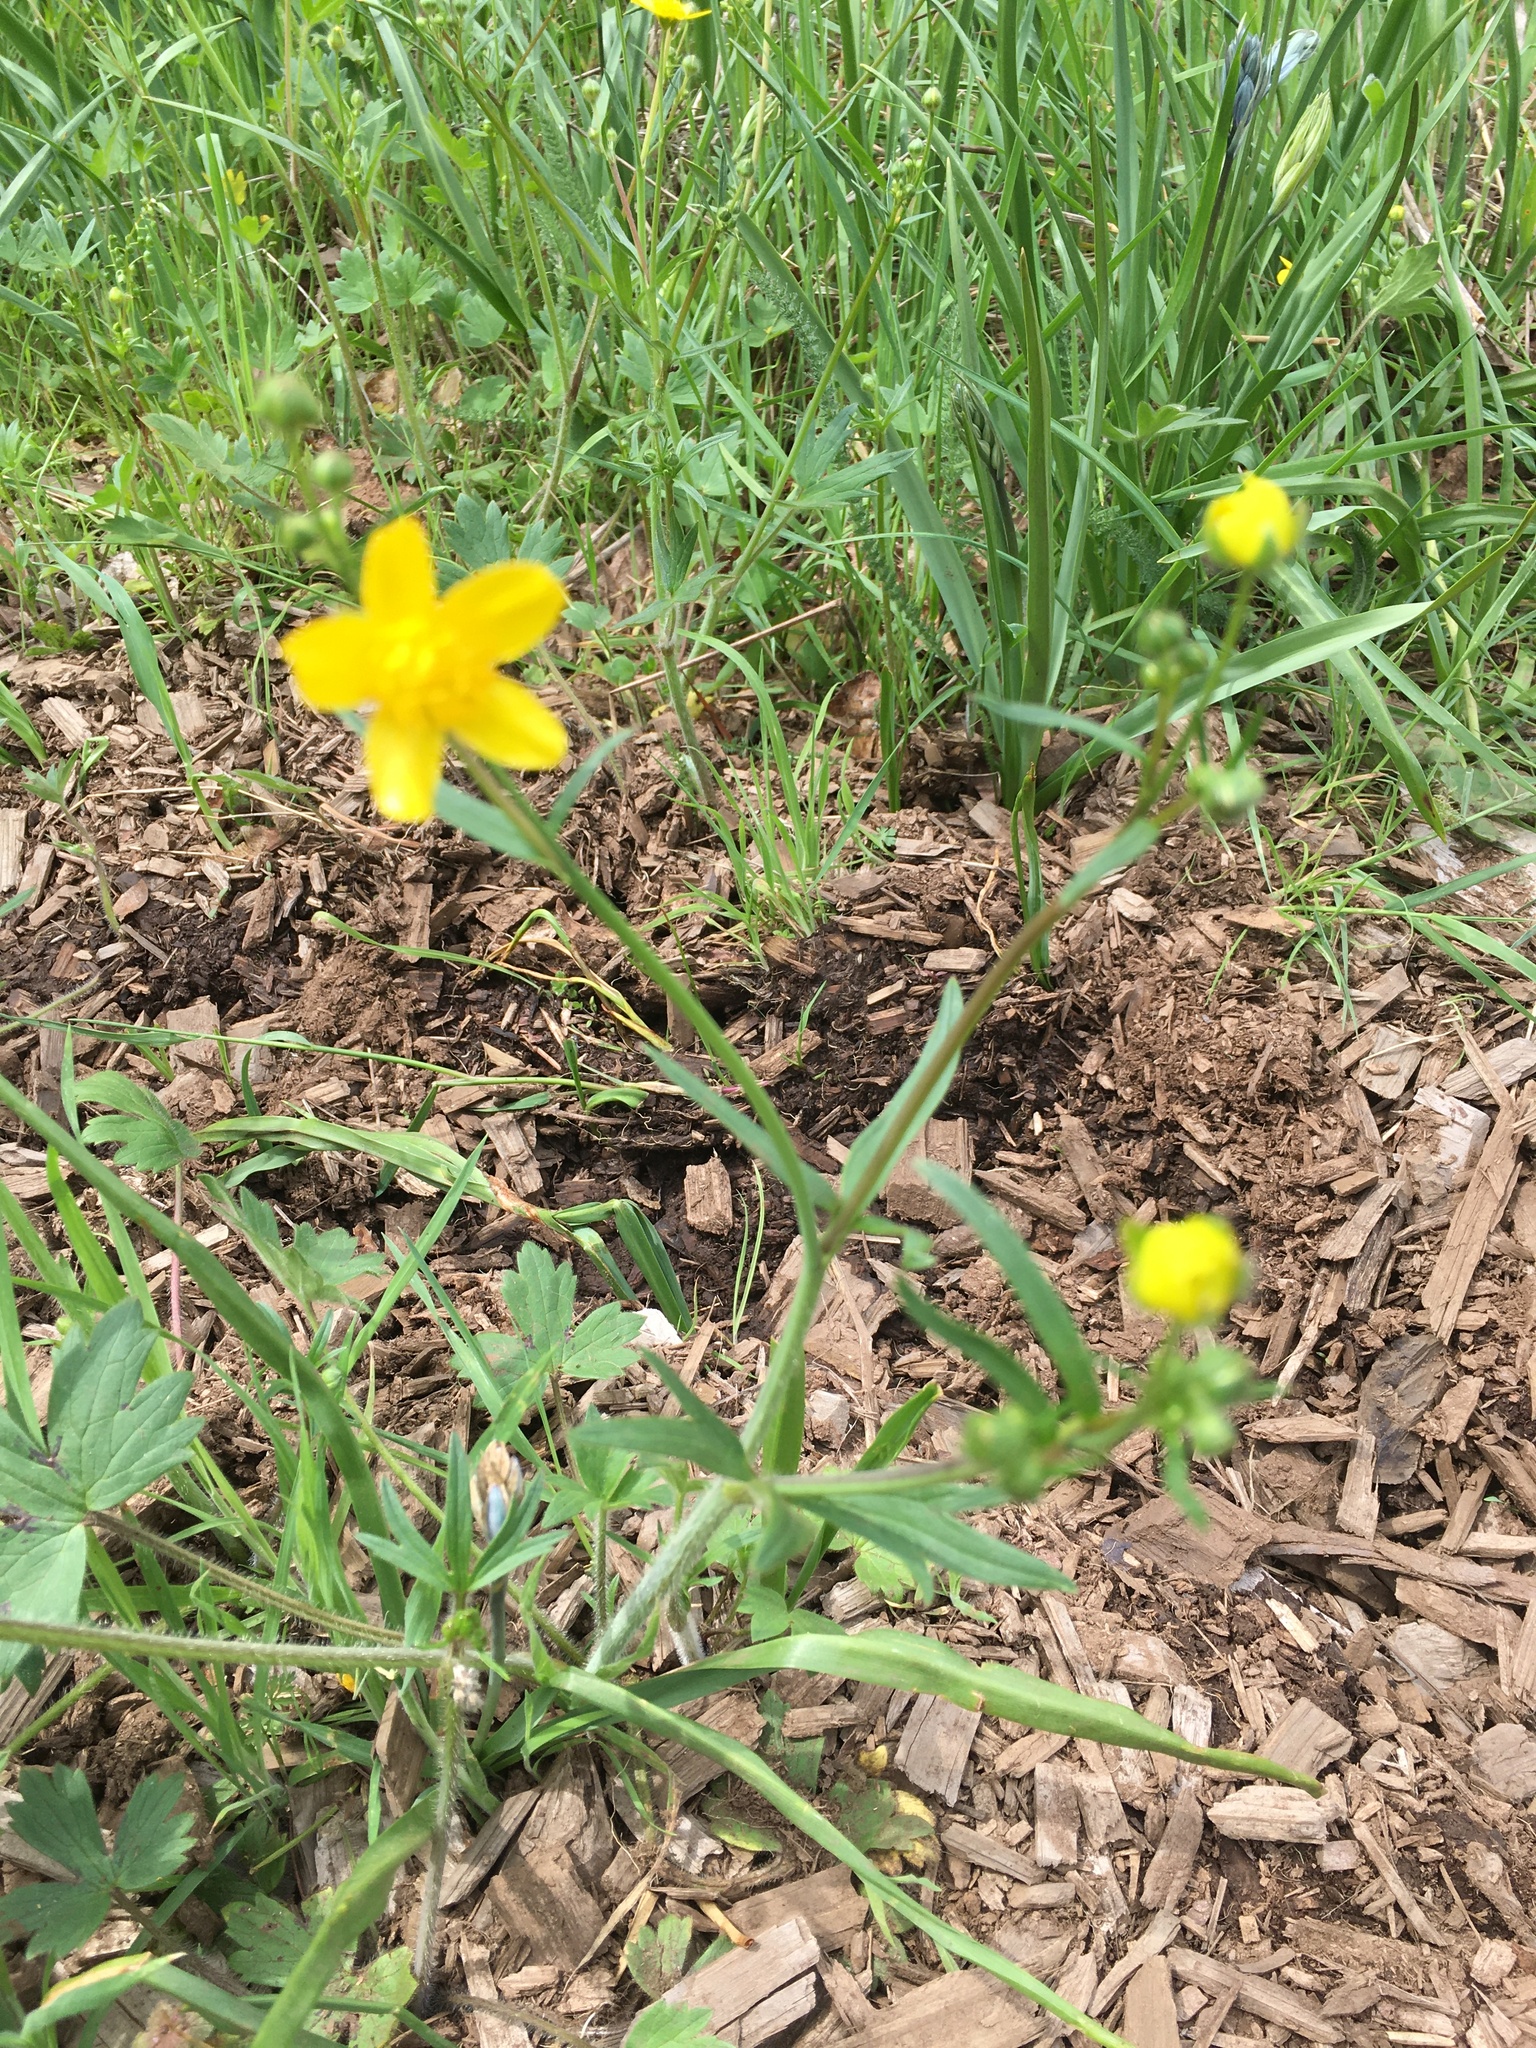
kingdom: Plantae
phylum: Tracheophyta
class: Magnoliopsida
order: Ranunculales
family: Ranunculaceae
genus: Ranunculus
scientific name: Ranunculus occidentalis
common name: Western buttercup
